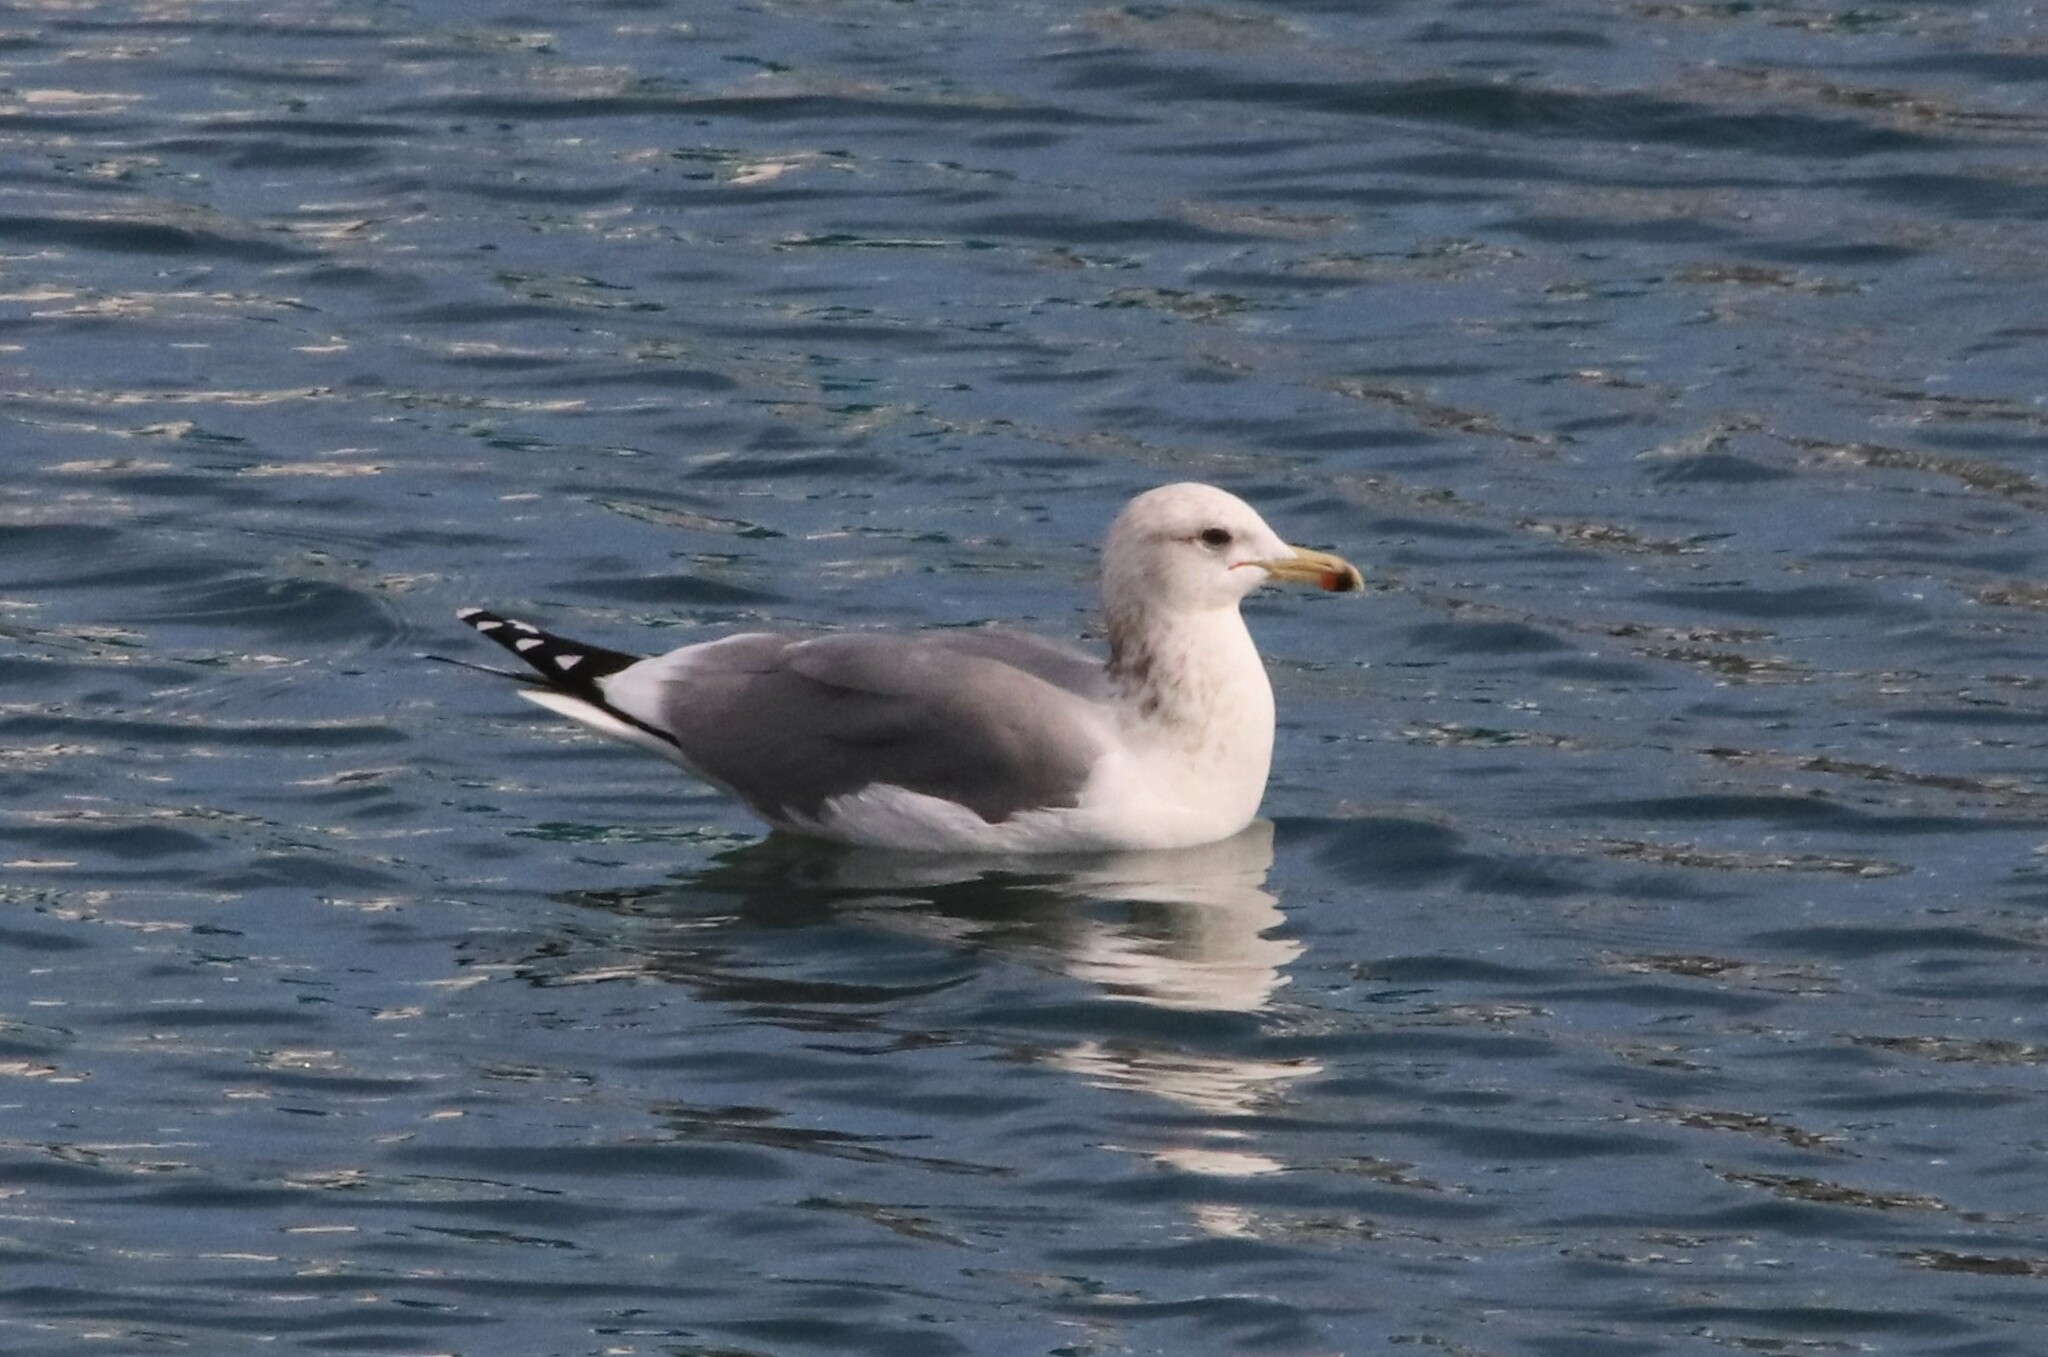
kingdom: Animalia
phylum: Chordata
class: Aves
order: Charadriiformes
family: Laridae
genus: Larus
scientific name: Larus californicus
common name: California gull
